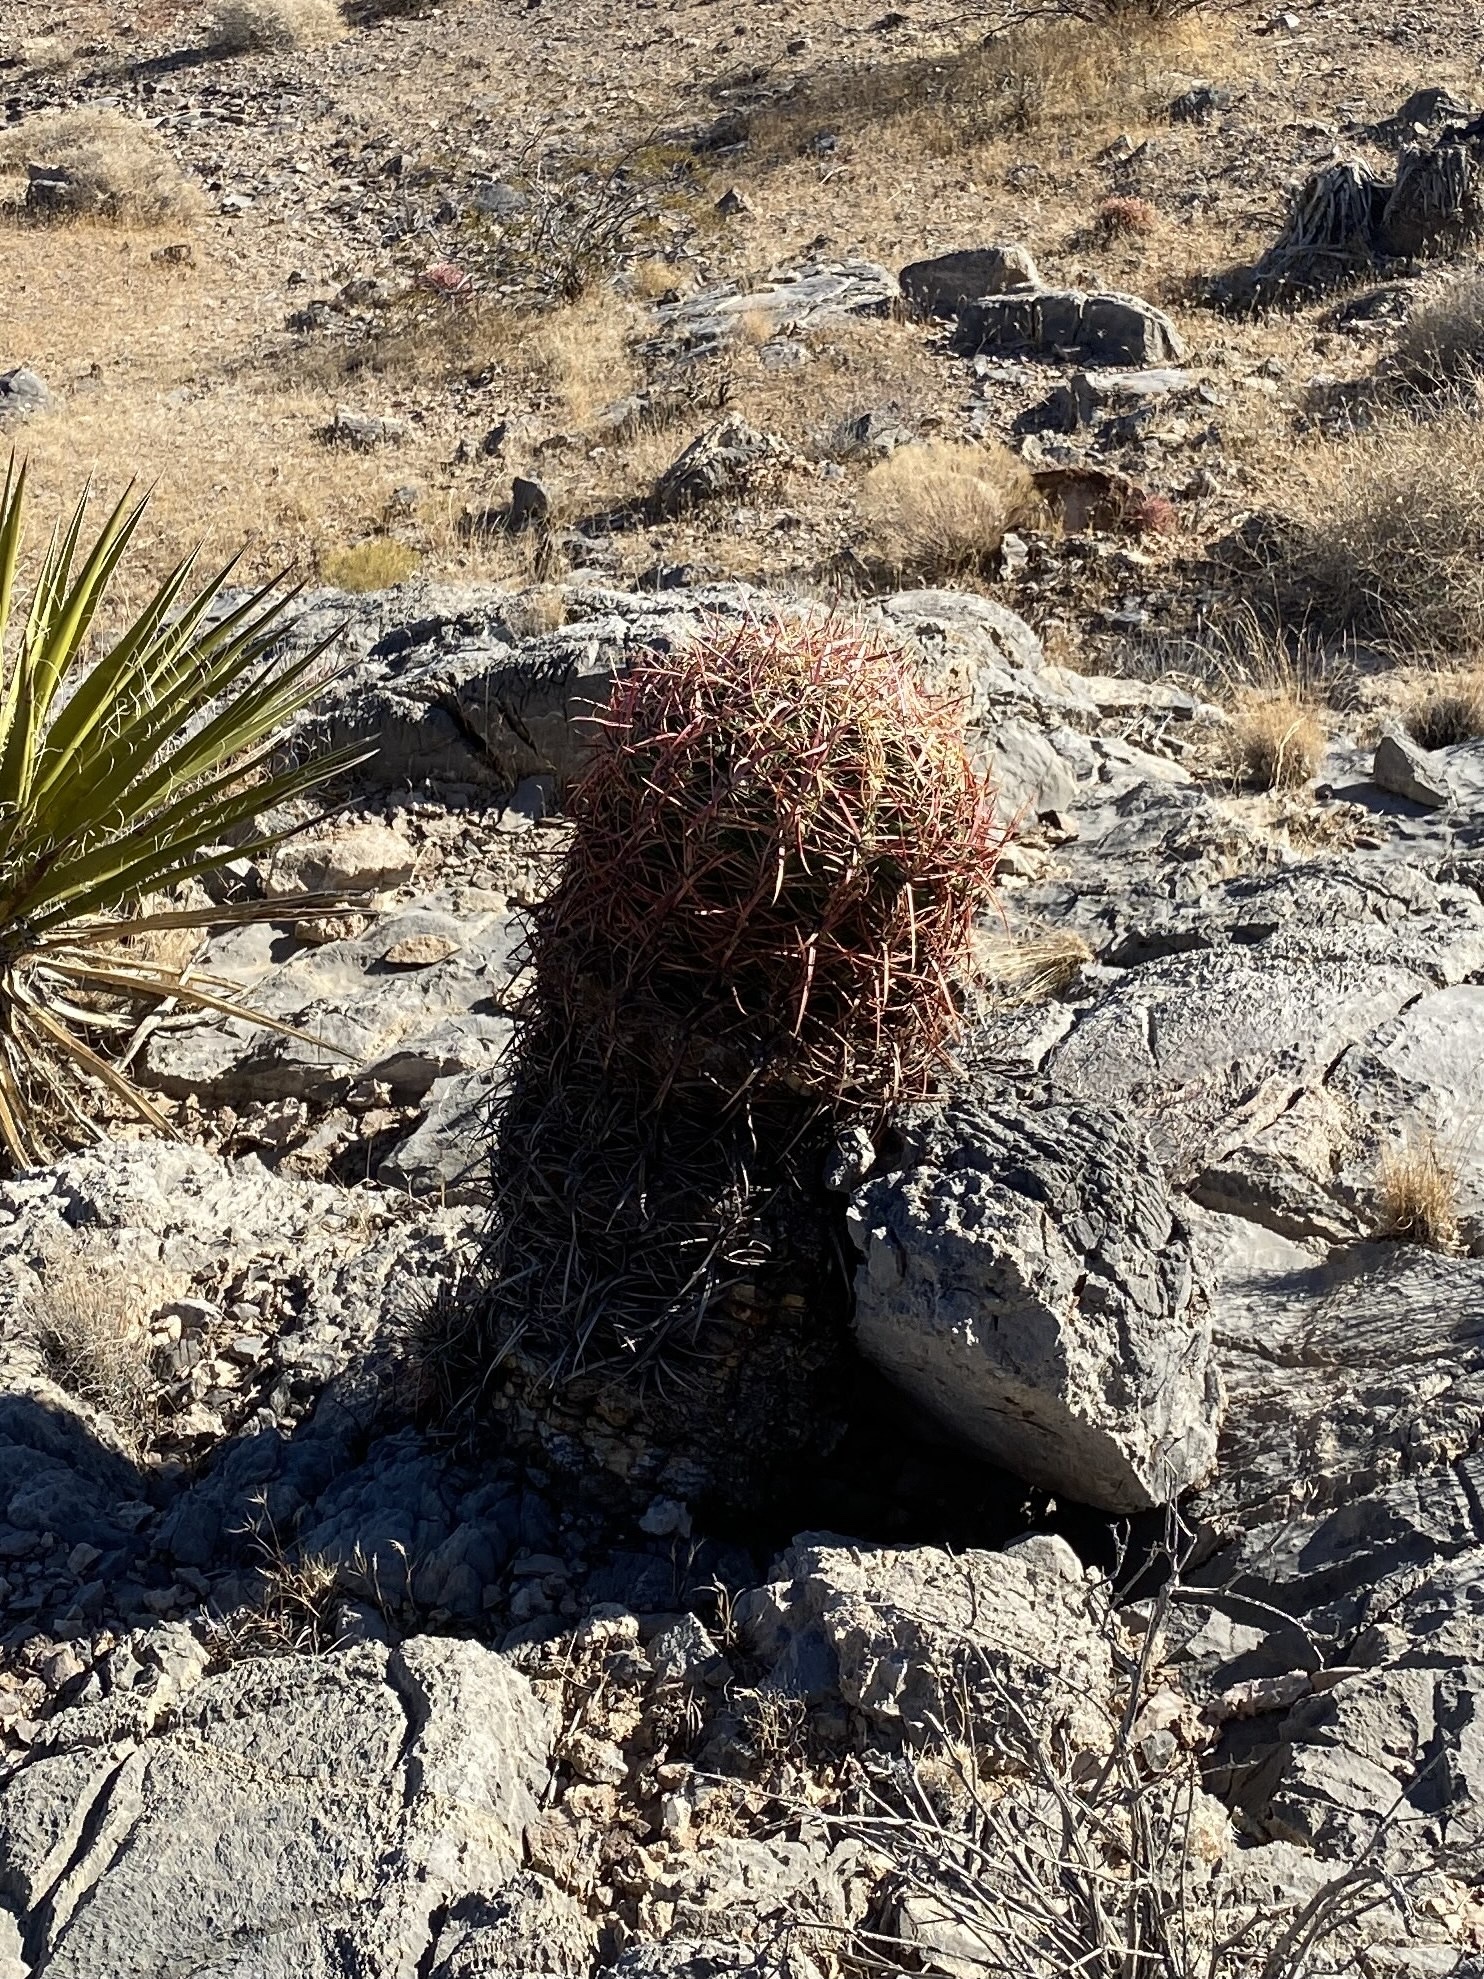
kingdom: Plantae
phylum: Tracheophyta
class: Magnoliopsida
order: Caryophyllales
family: Cactaceae
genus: Ferocactus
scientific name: Ferocactus cylindraceus
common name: California barrel cactus
